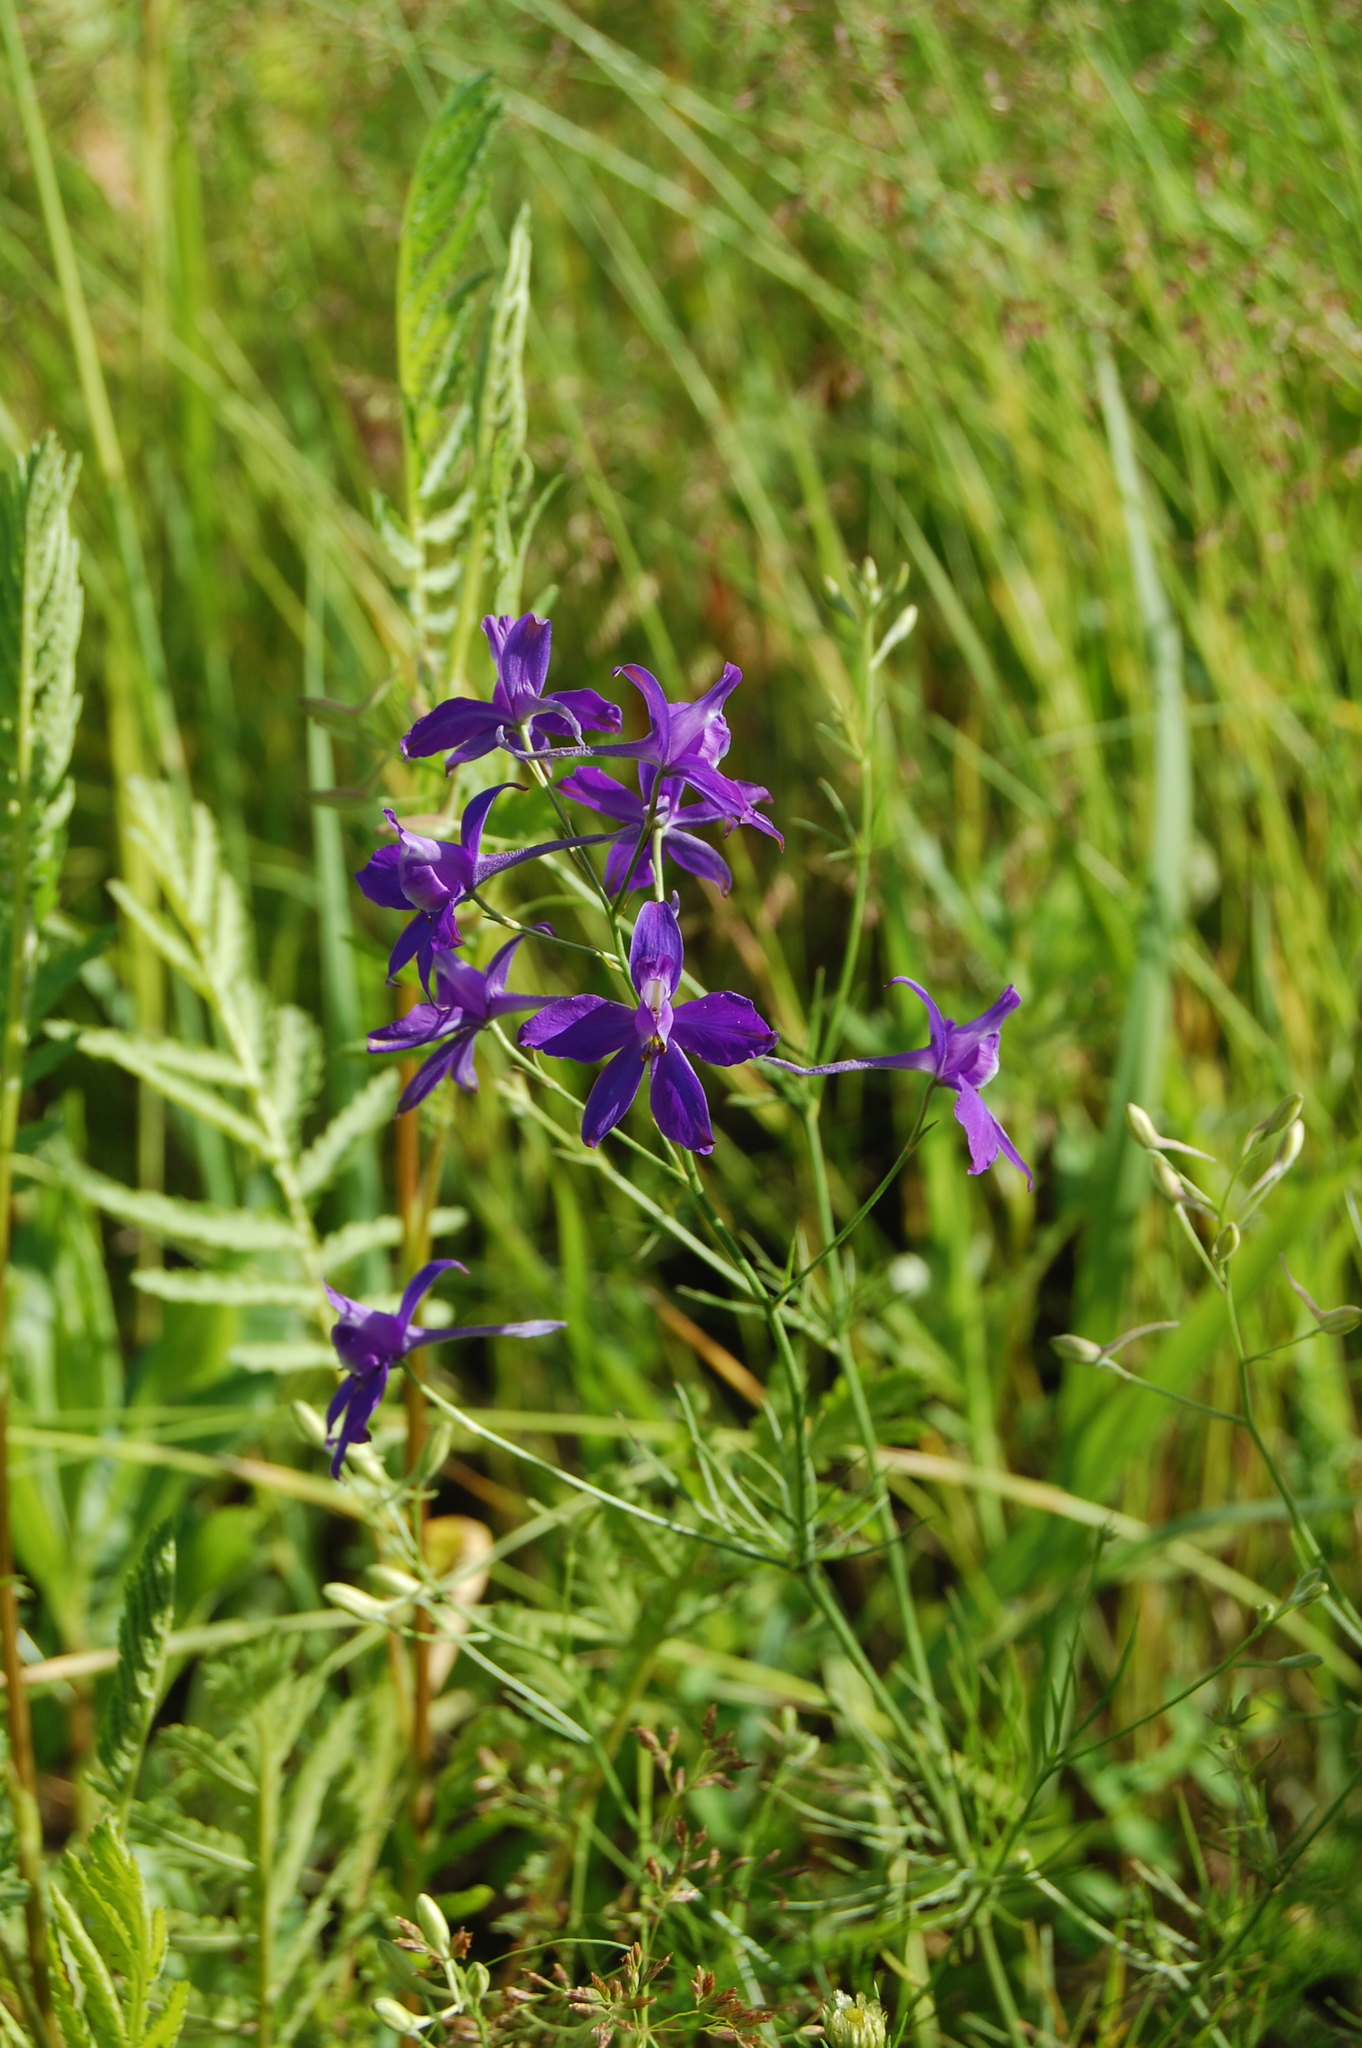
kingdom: Plantae
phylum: Tracheophyta
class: Magnoliopsida
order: Ranunculales
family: Ranunculaceae
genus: Delphinium
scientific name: Delphinium consolida
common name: Branching larkspur
